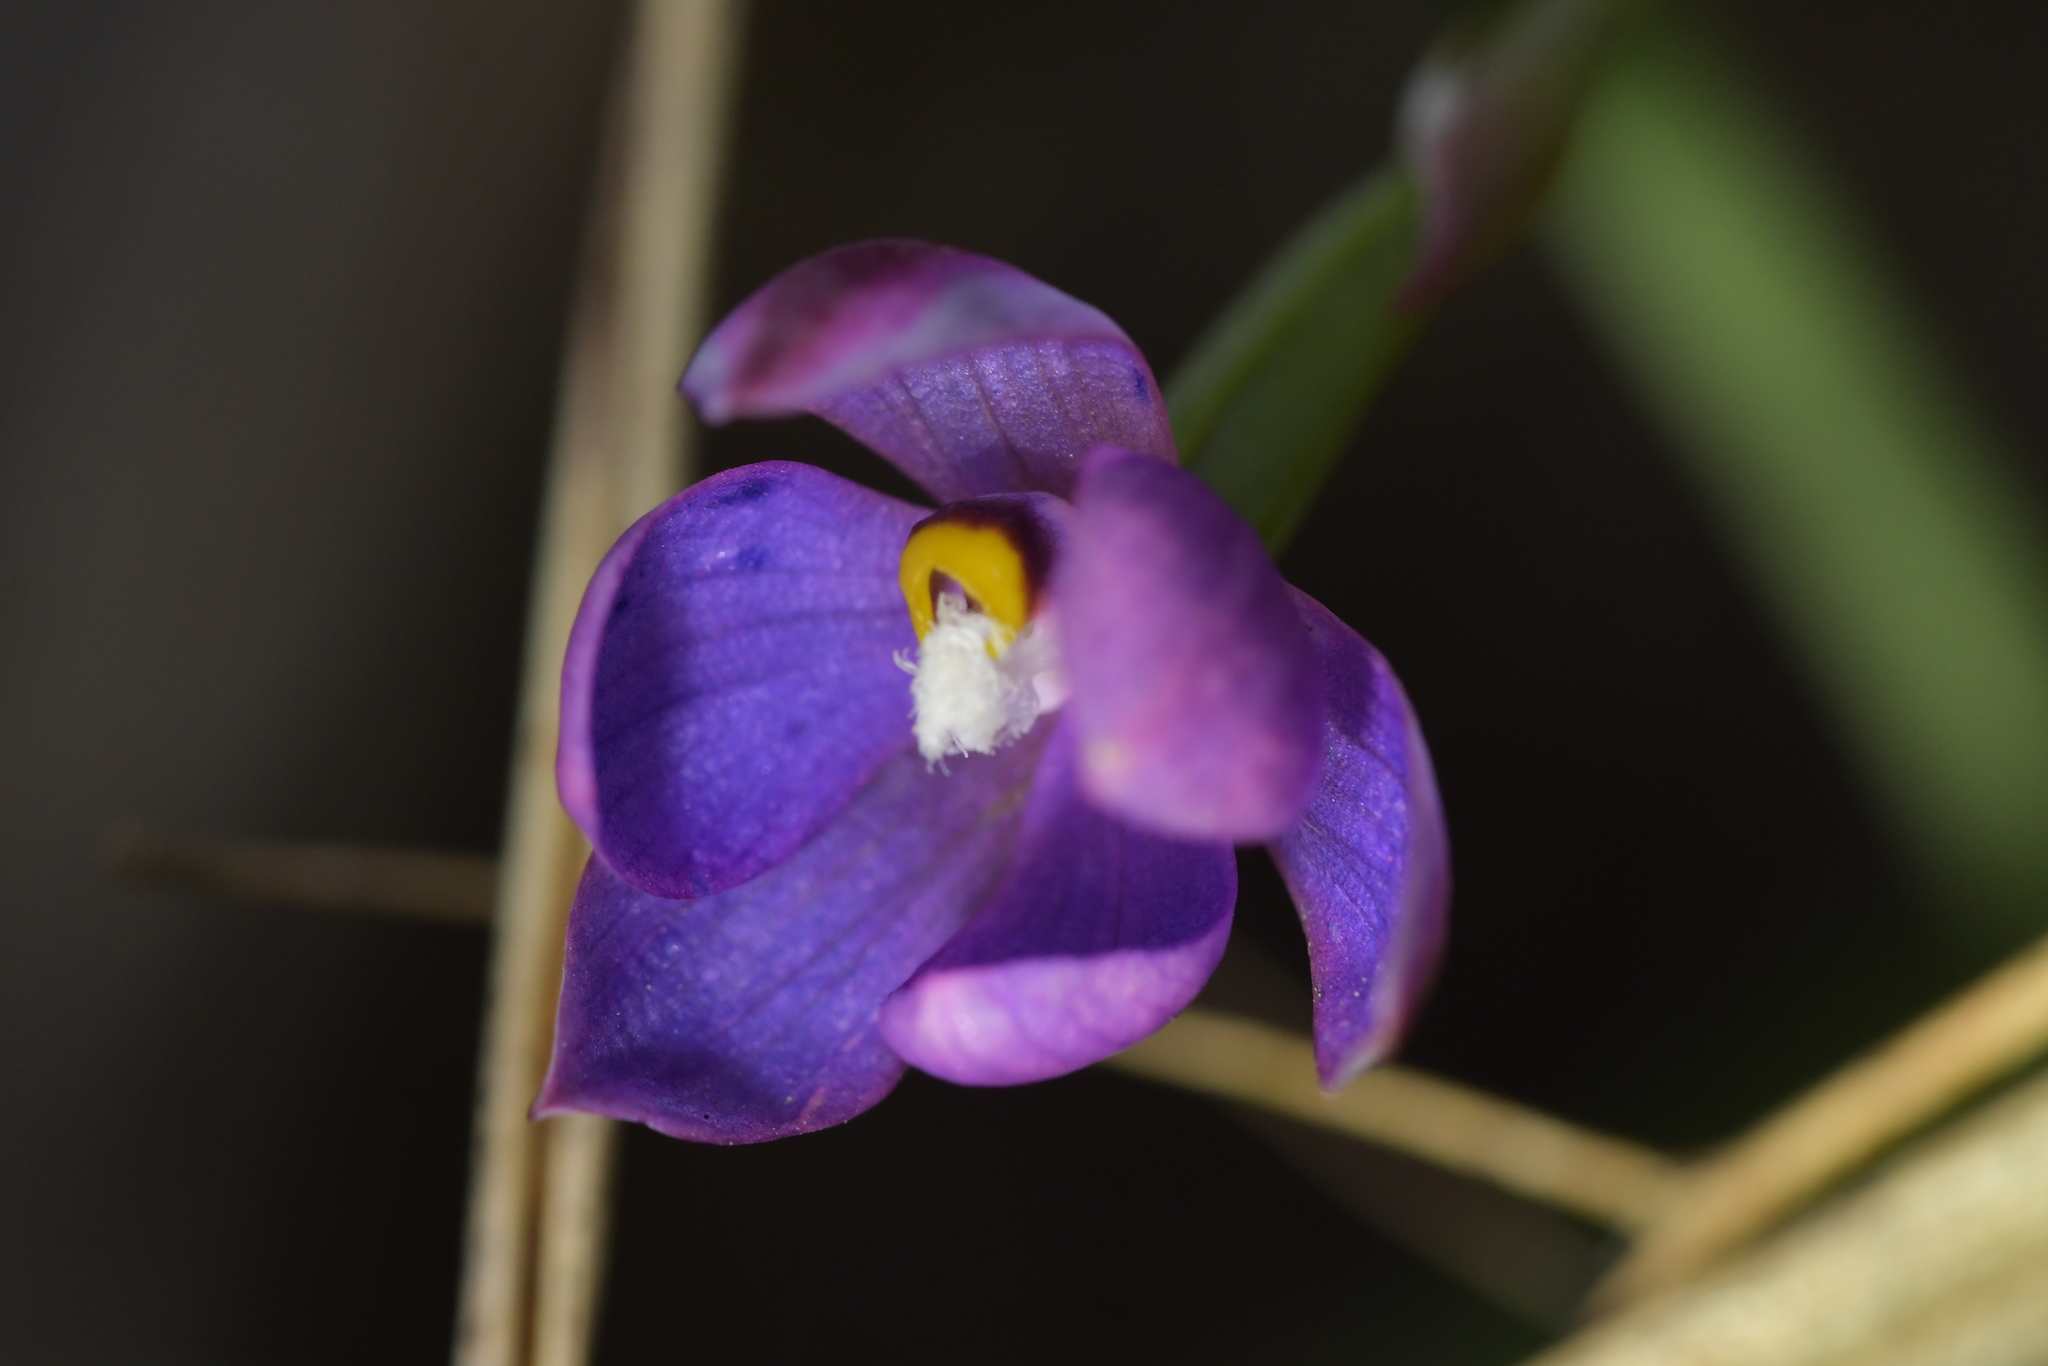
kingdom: Plantae
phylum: Tracheophyta
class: Liliopsida
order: Asparagales
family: Orchidaceae
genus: Thelymitra
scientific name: Thelymitra nervosa
